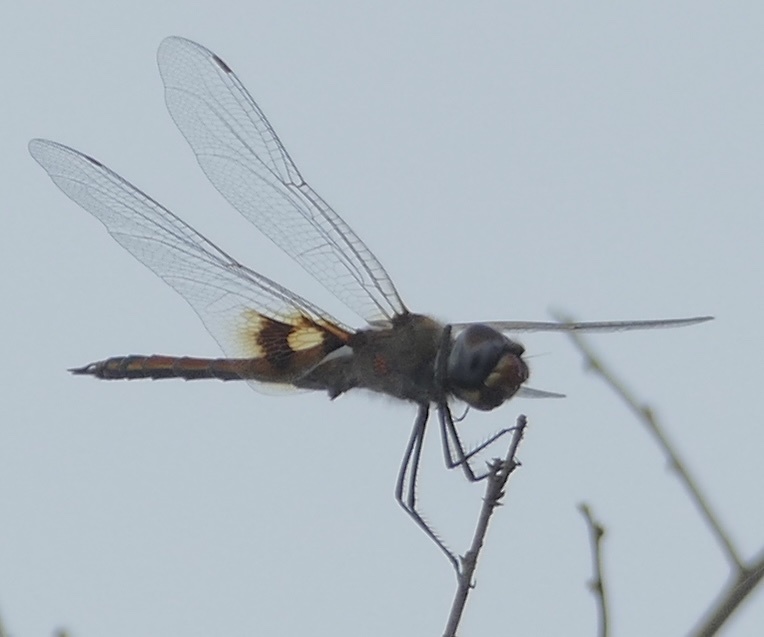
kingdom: Animalia
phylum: Arthropoda
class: Insecta
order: Odonata
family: Libellulidae
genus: Tramea
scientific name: Tramea basilaris
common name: Keyhole glider
